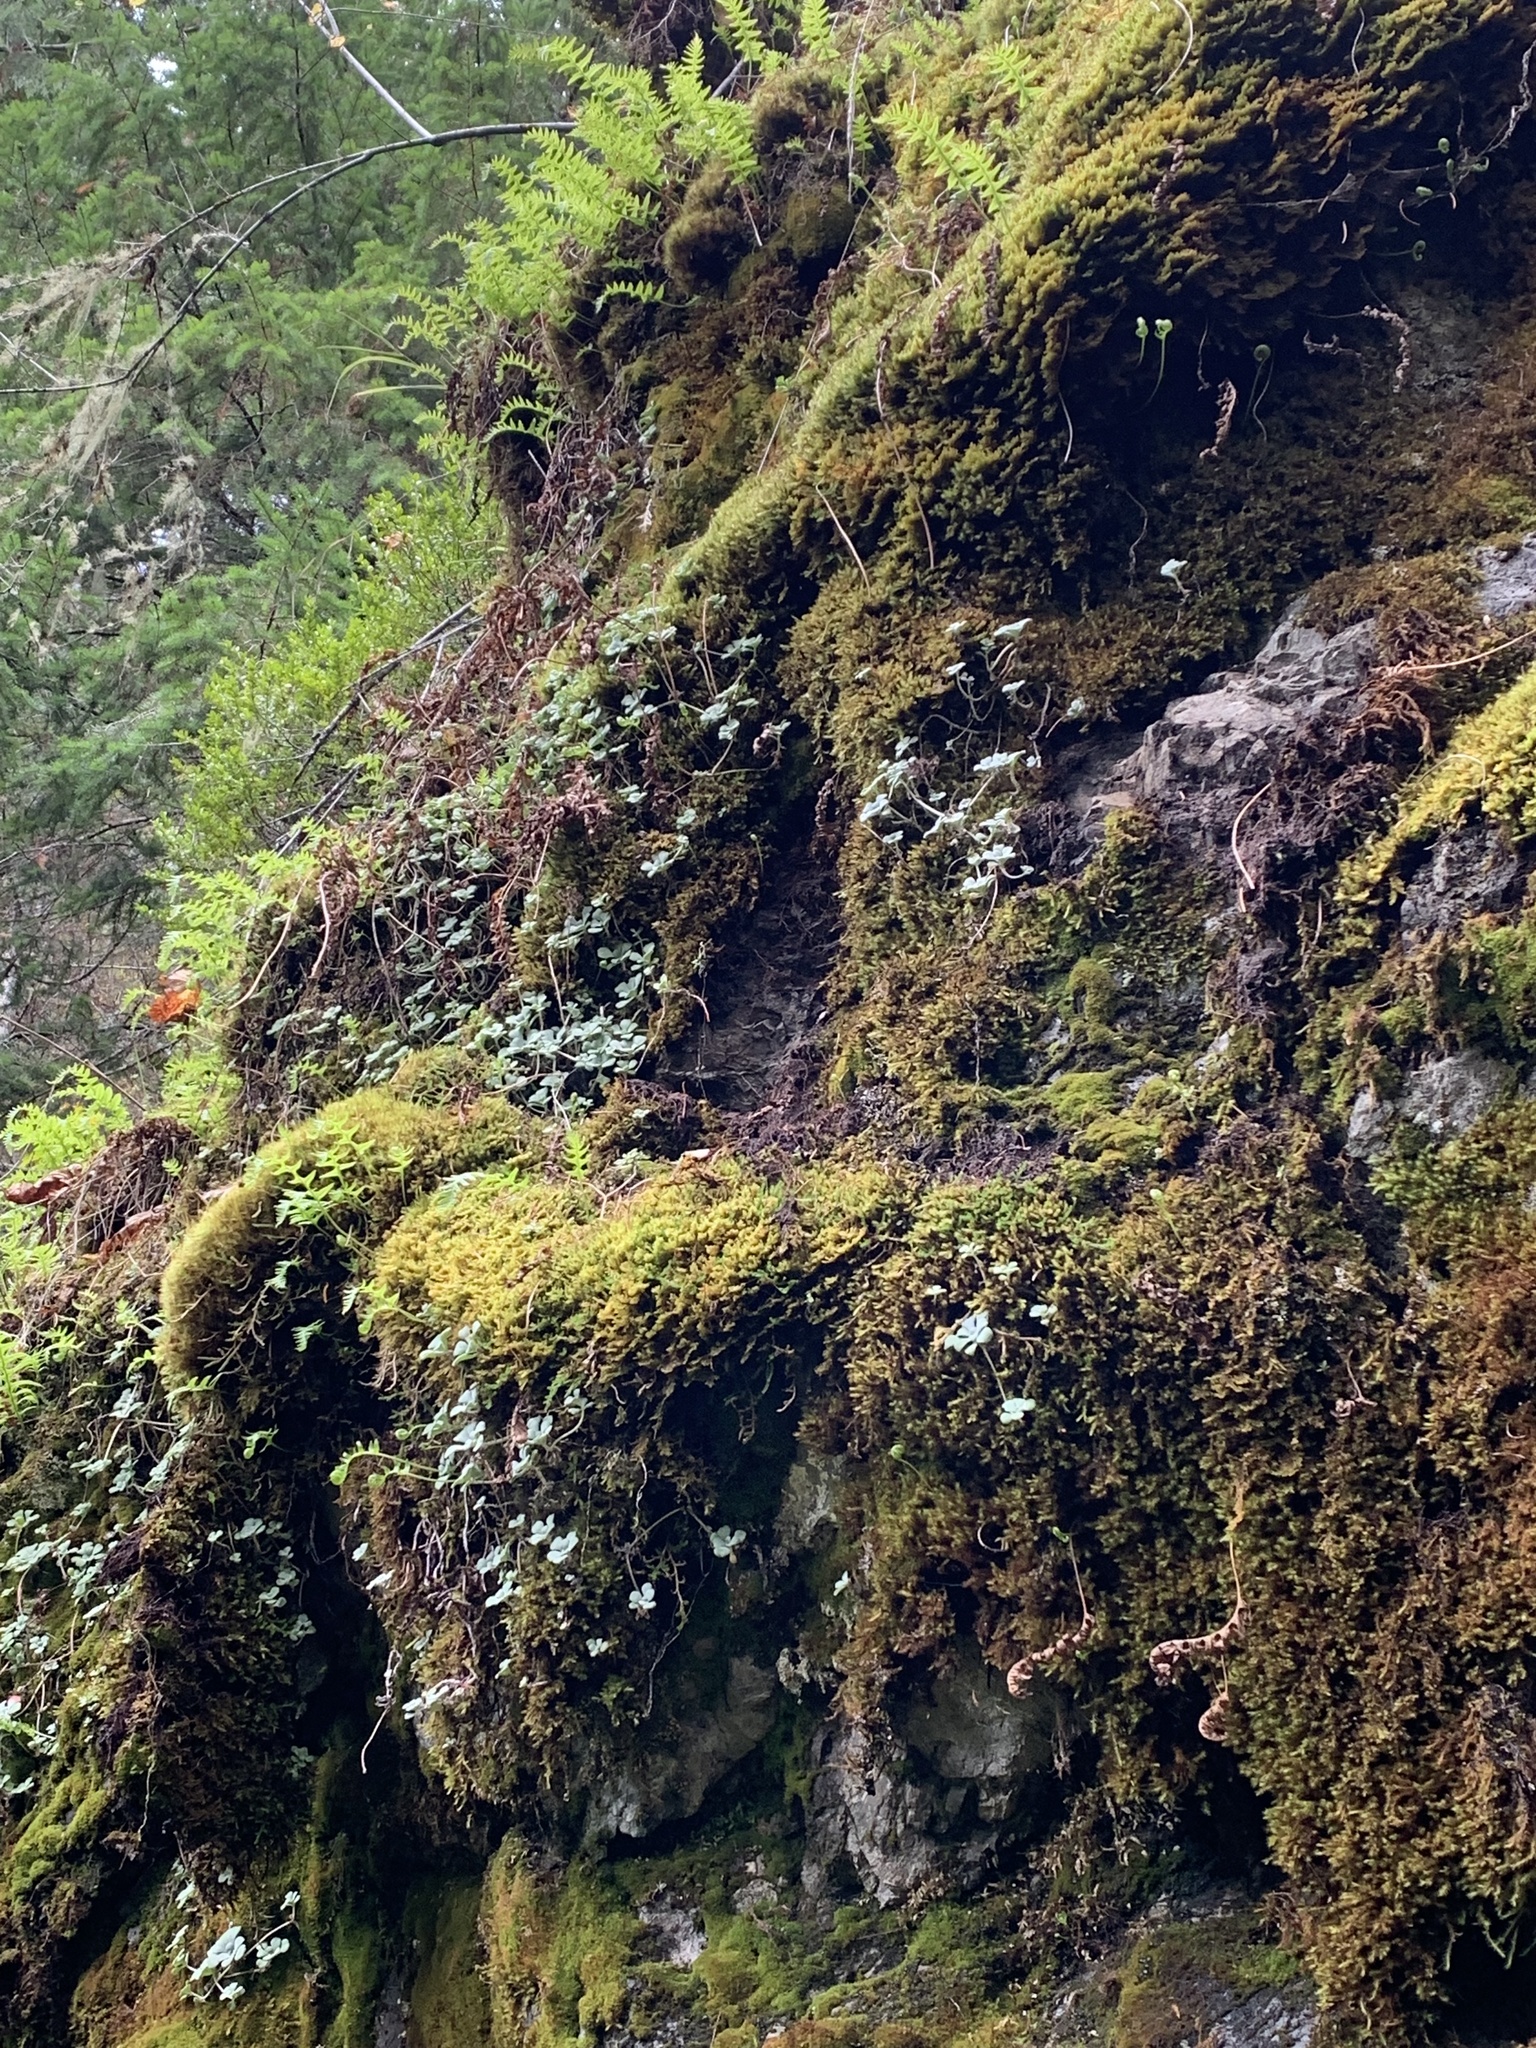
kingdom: Plantae
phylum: Tracheophyta
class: Magnoliopsida
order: Saxifragales
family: Crassulaceae
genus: Sedum
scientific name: Sedum spathulifolium
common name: Colorado stonecrop
